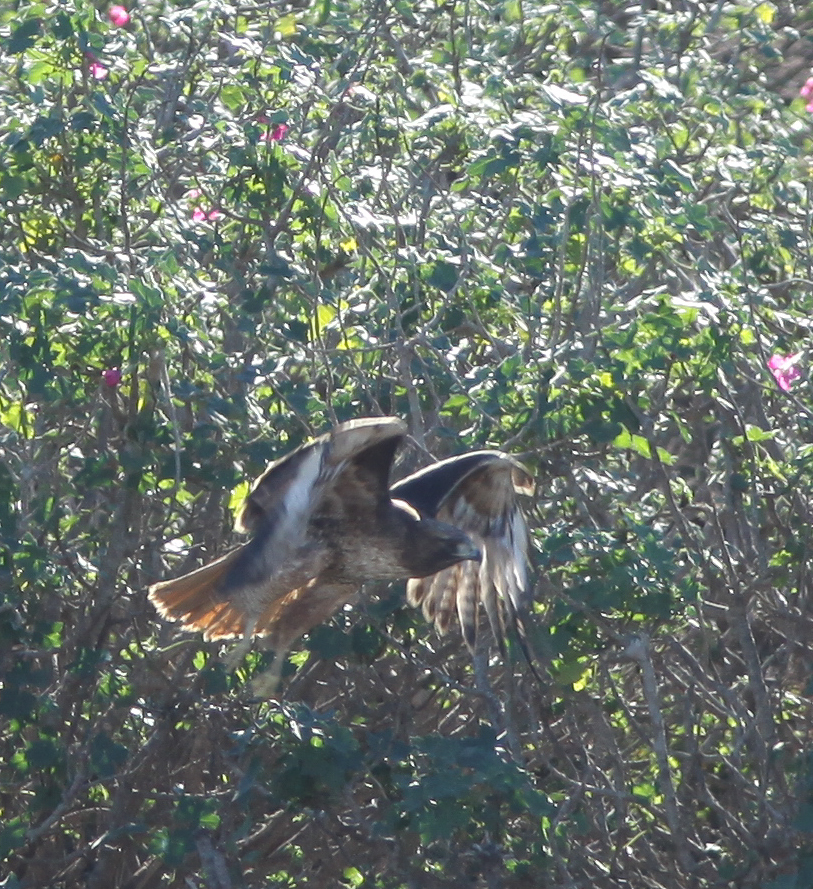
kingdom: Animalia
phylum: Chordata
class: Aves
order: Accipitriformes
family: Accipitridae
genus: Buteo
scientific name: Buteo jamaicensis
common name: Red-tailed hawk
